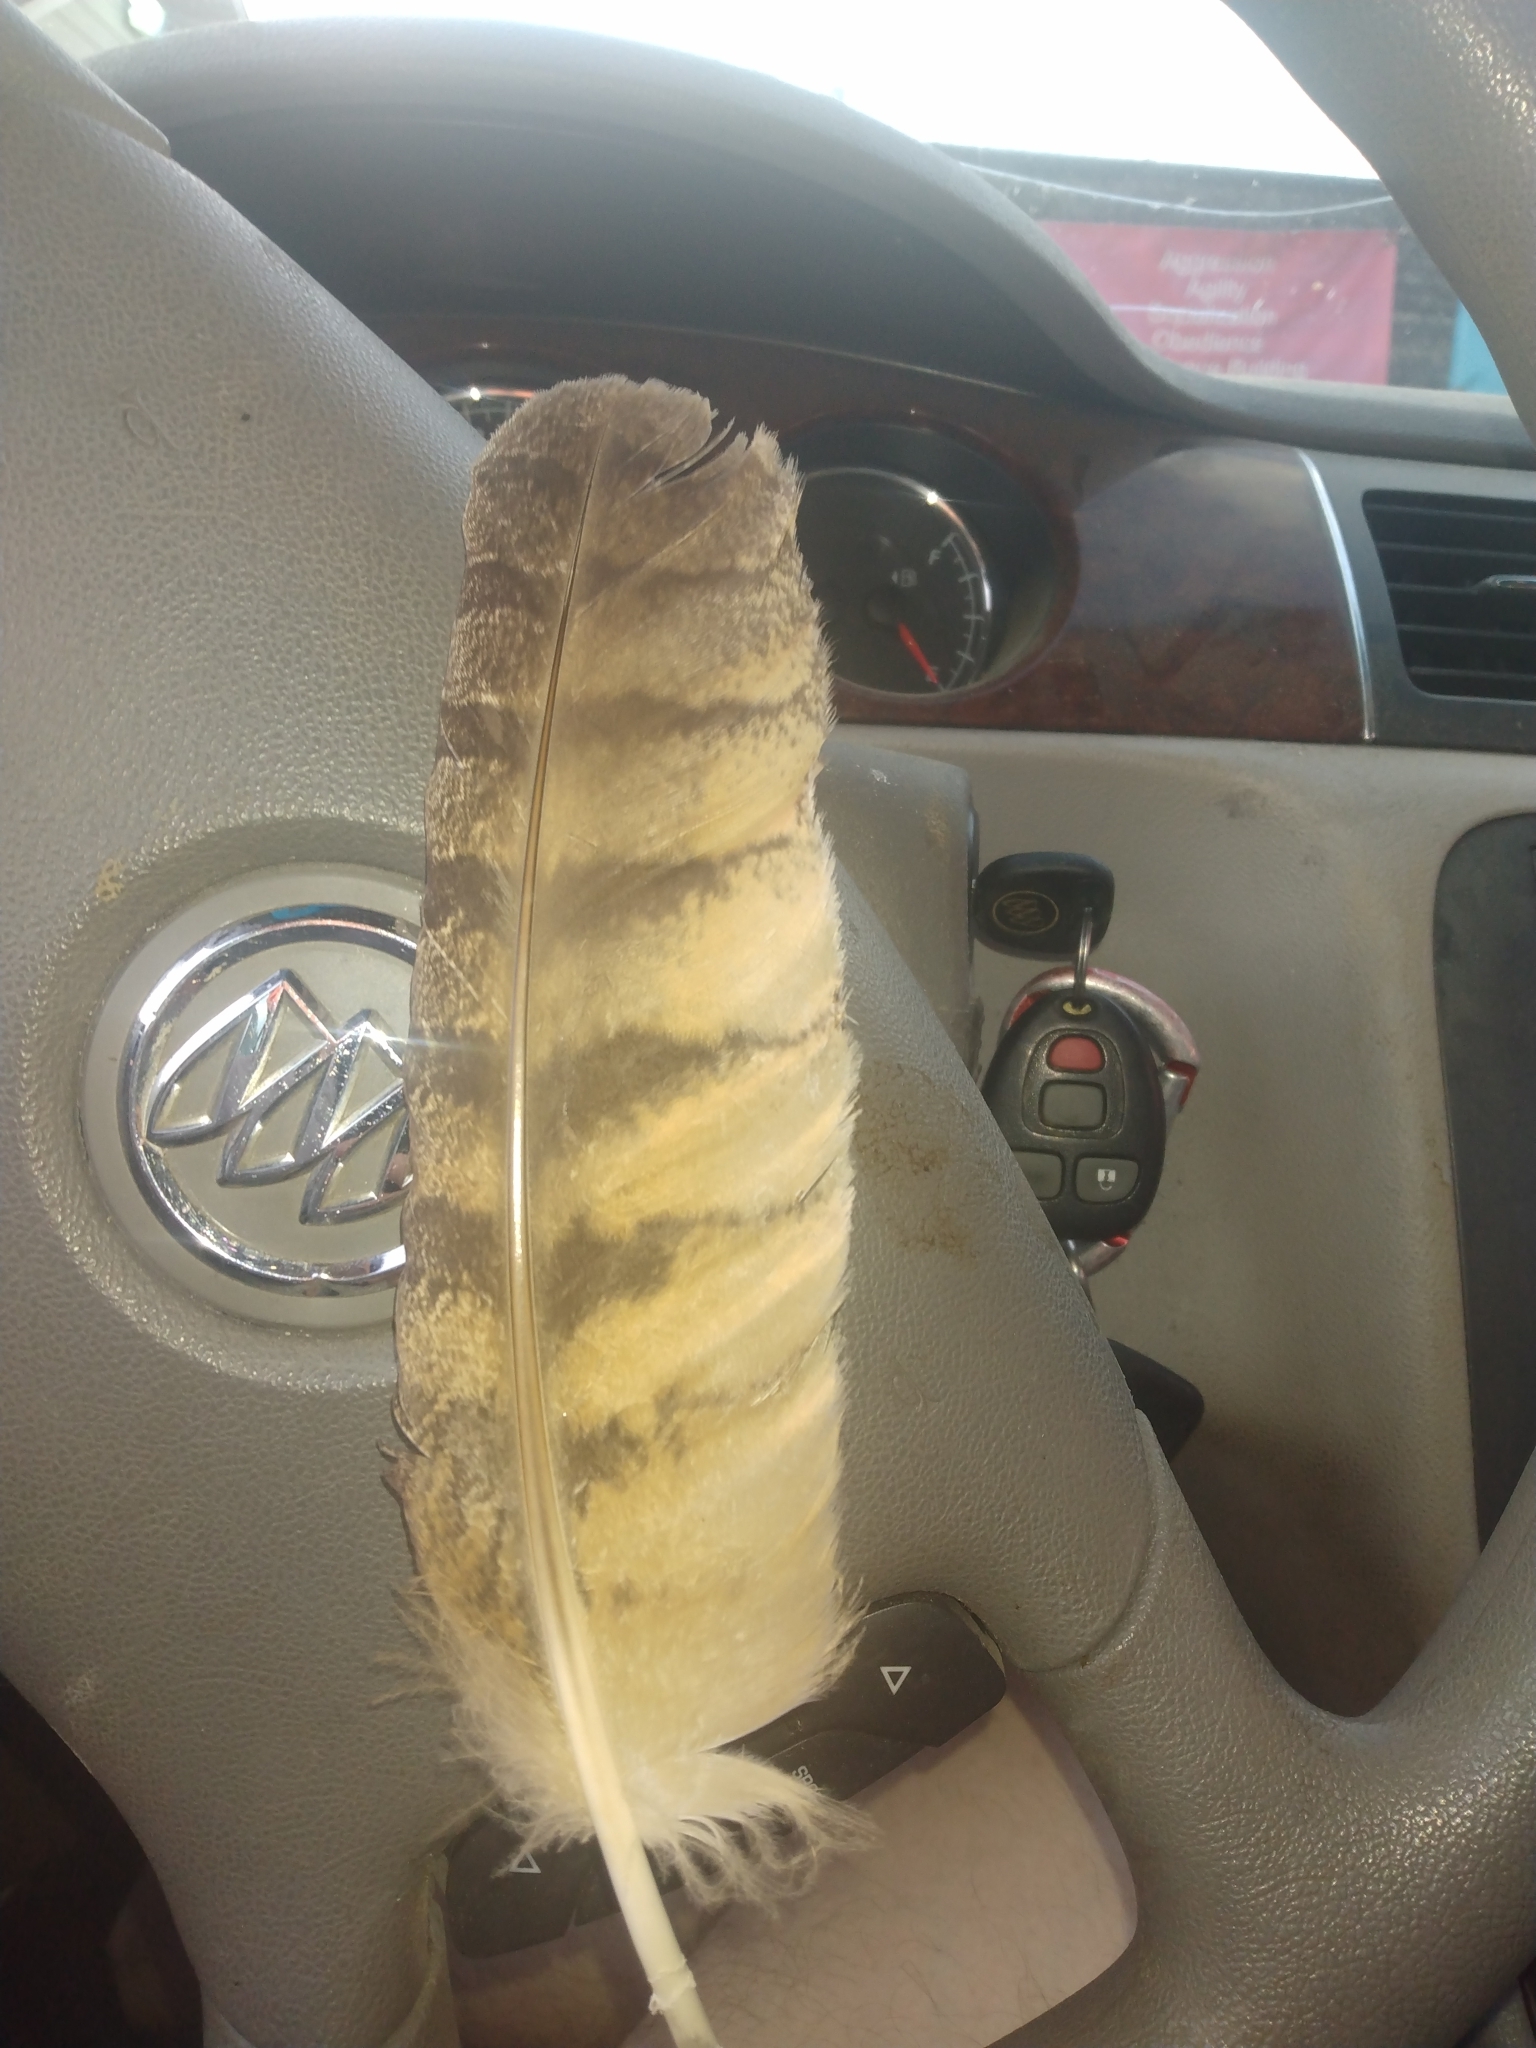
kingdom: Animalia
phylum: Chordata
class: Aves
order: Strigiformes
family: Strigidae
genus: Bubo
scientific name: Bubo virginianus
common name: Great horned owl
